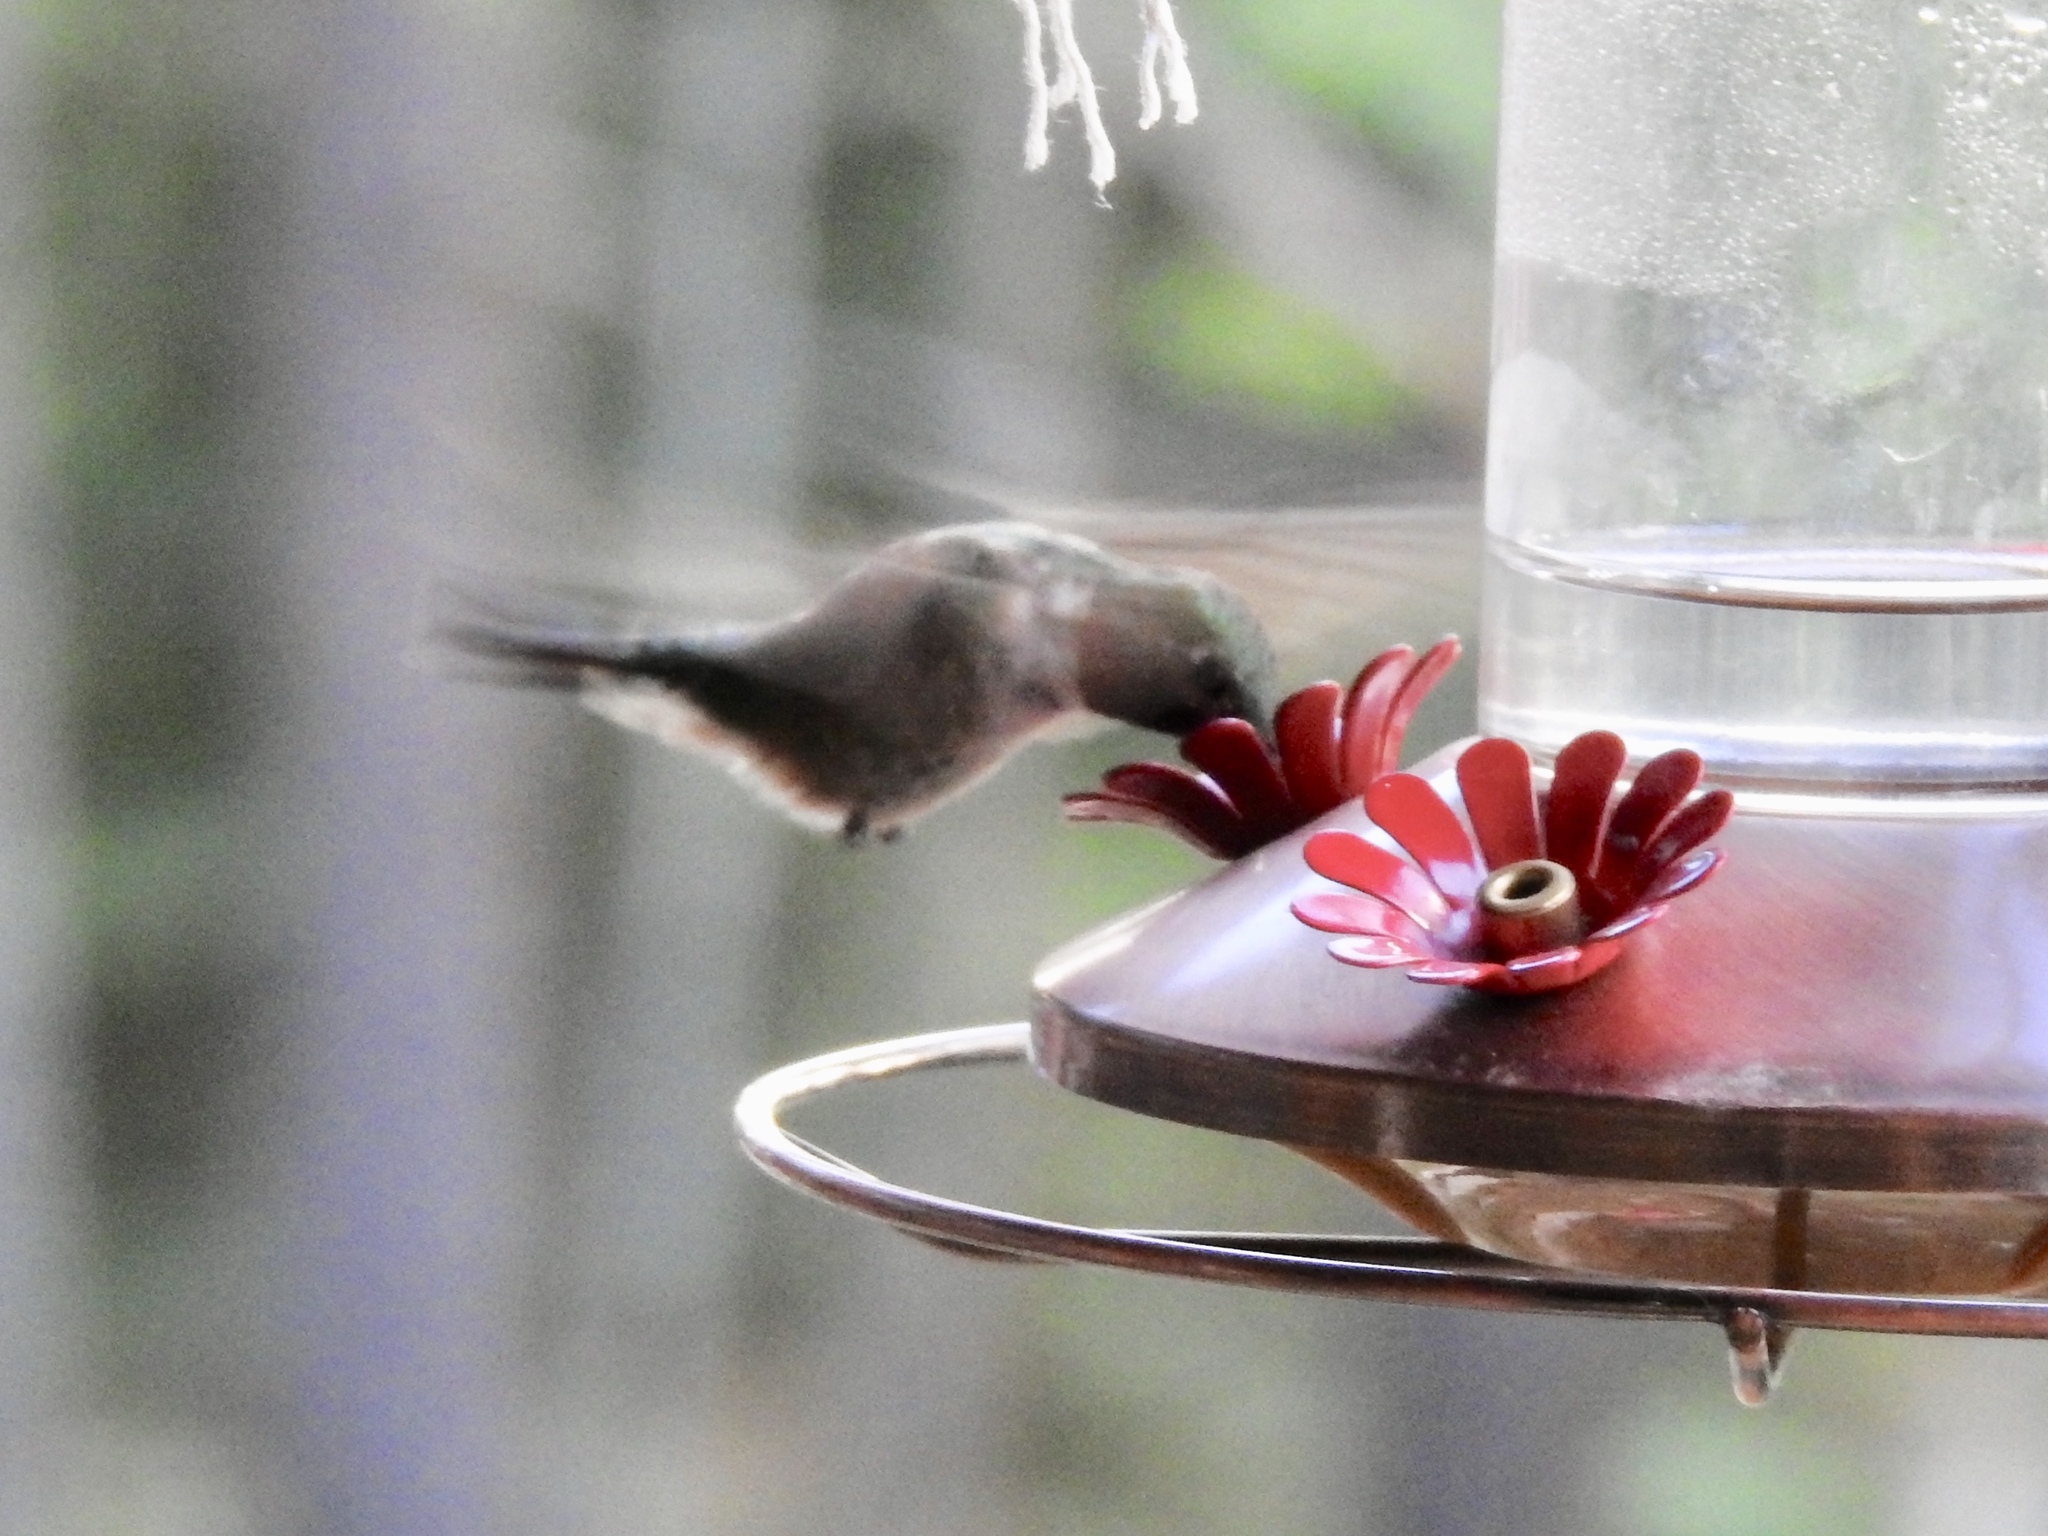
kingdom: Animalia
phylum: Chordata
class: Aves
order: Apodiformes
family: Trochilidae
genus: Selasphorus
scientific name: Selasphorus platycercus
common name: Broad-tailed hummingbird
